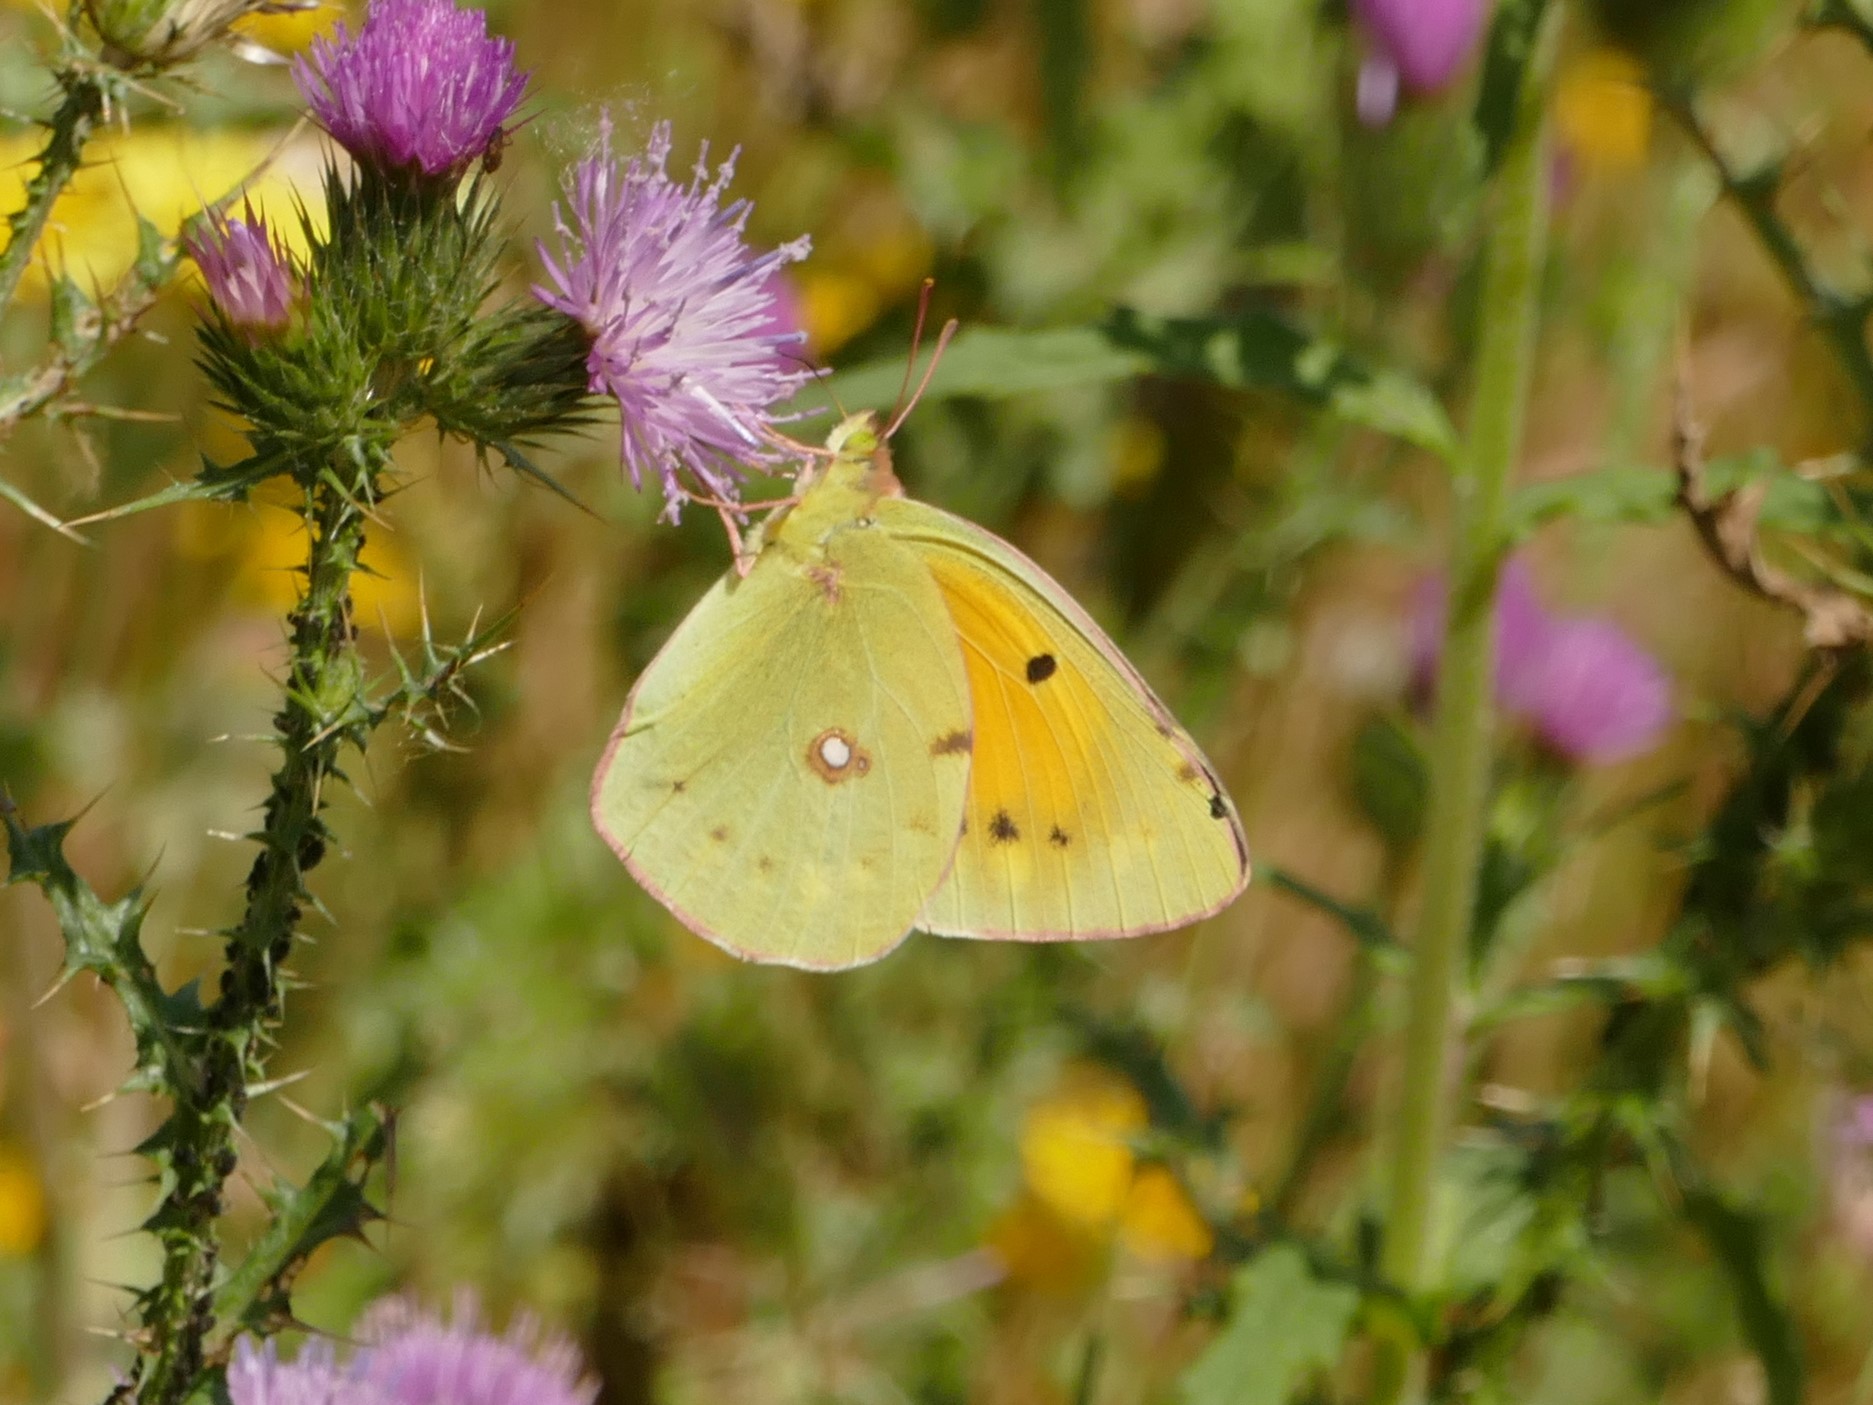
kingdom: Animalia
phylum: Arthropoda
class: Insecta
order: Lepidoptera
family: Pieridae
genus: Colias
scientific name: Colias croceus
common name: Clouded yellow
